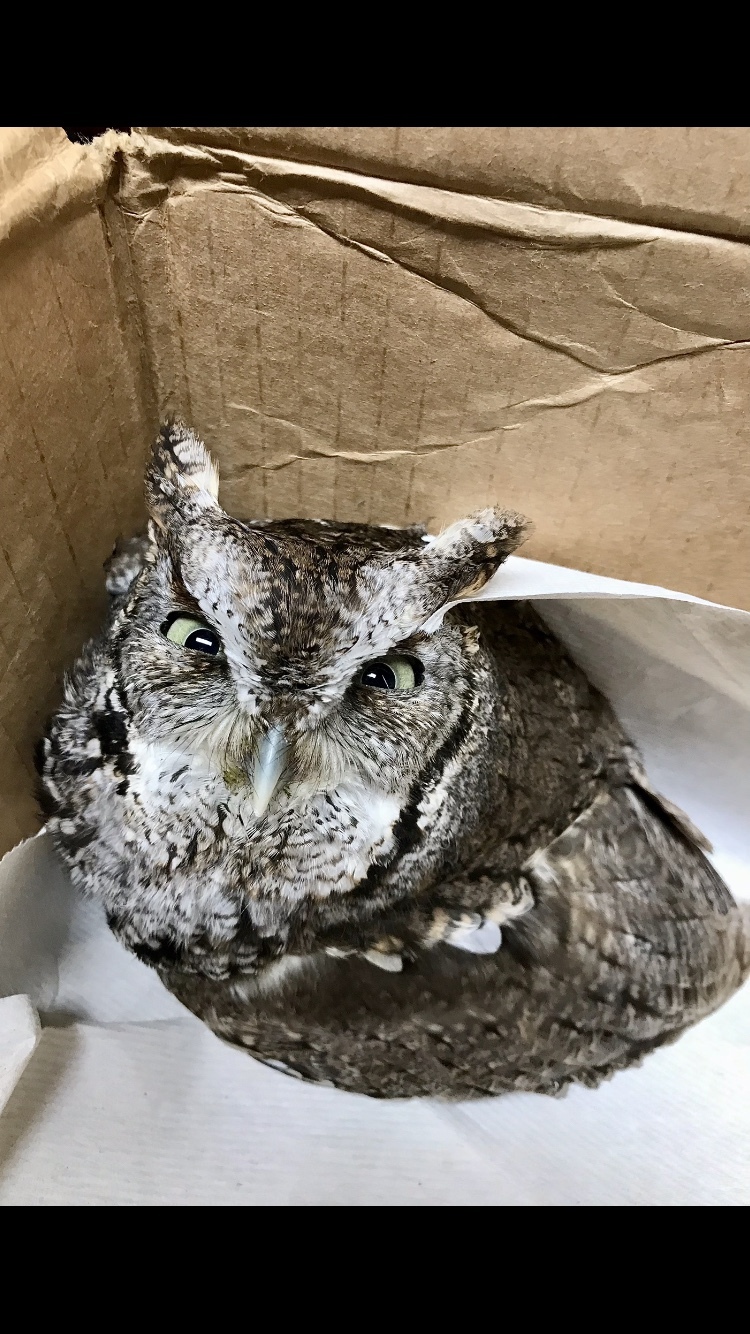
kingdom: Animalia
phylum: Chordata
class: Aves
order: Strigiformes
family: Strigidae
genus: Megascops
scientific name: Megascops asio
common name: Eastern screech-owl
